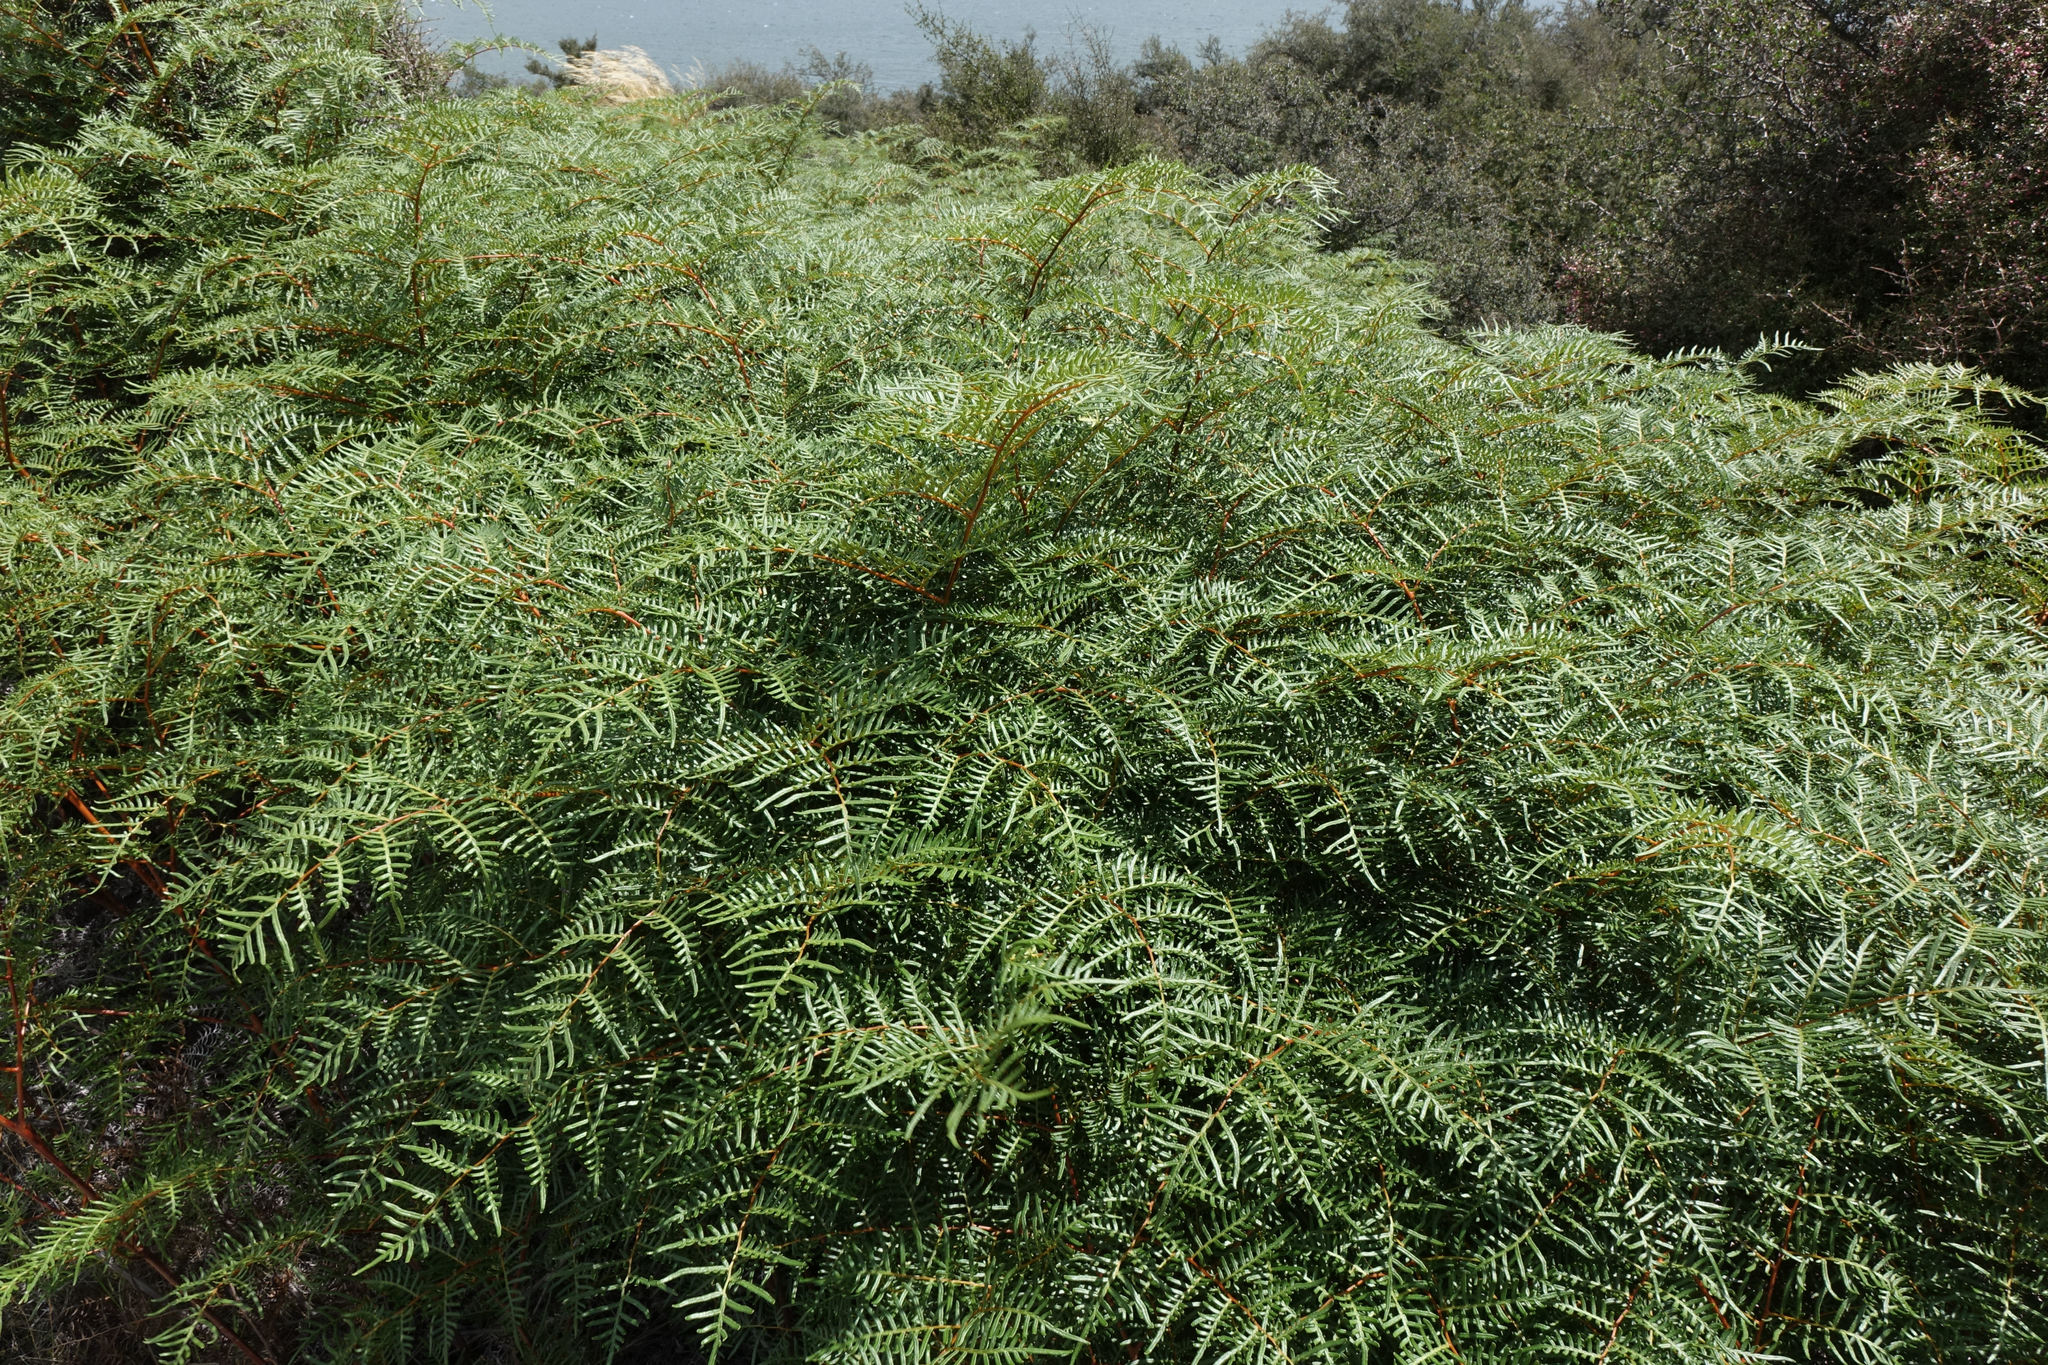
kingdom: Plantae
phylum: Tracheophyta
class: Polypodiopsida
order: Polypodiales
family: Dennstaedtiaceae
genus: Pteridium
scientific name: Pteridium esculentum
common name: Bracken fern
